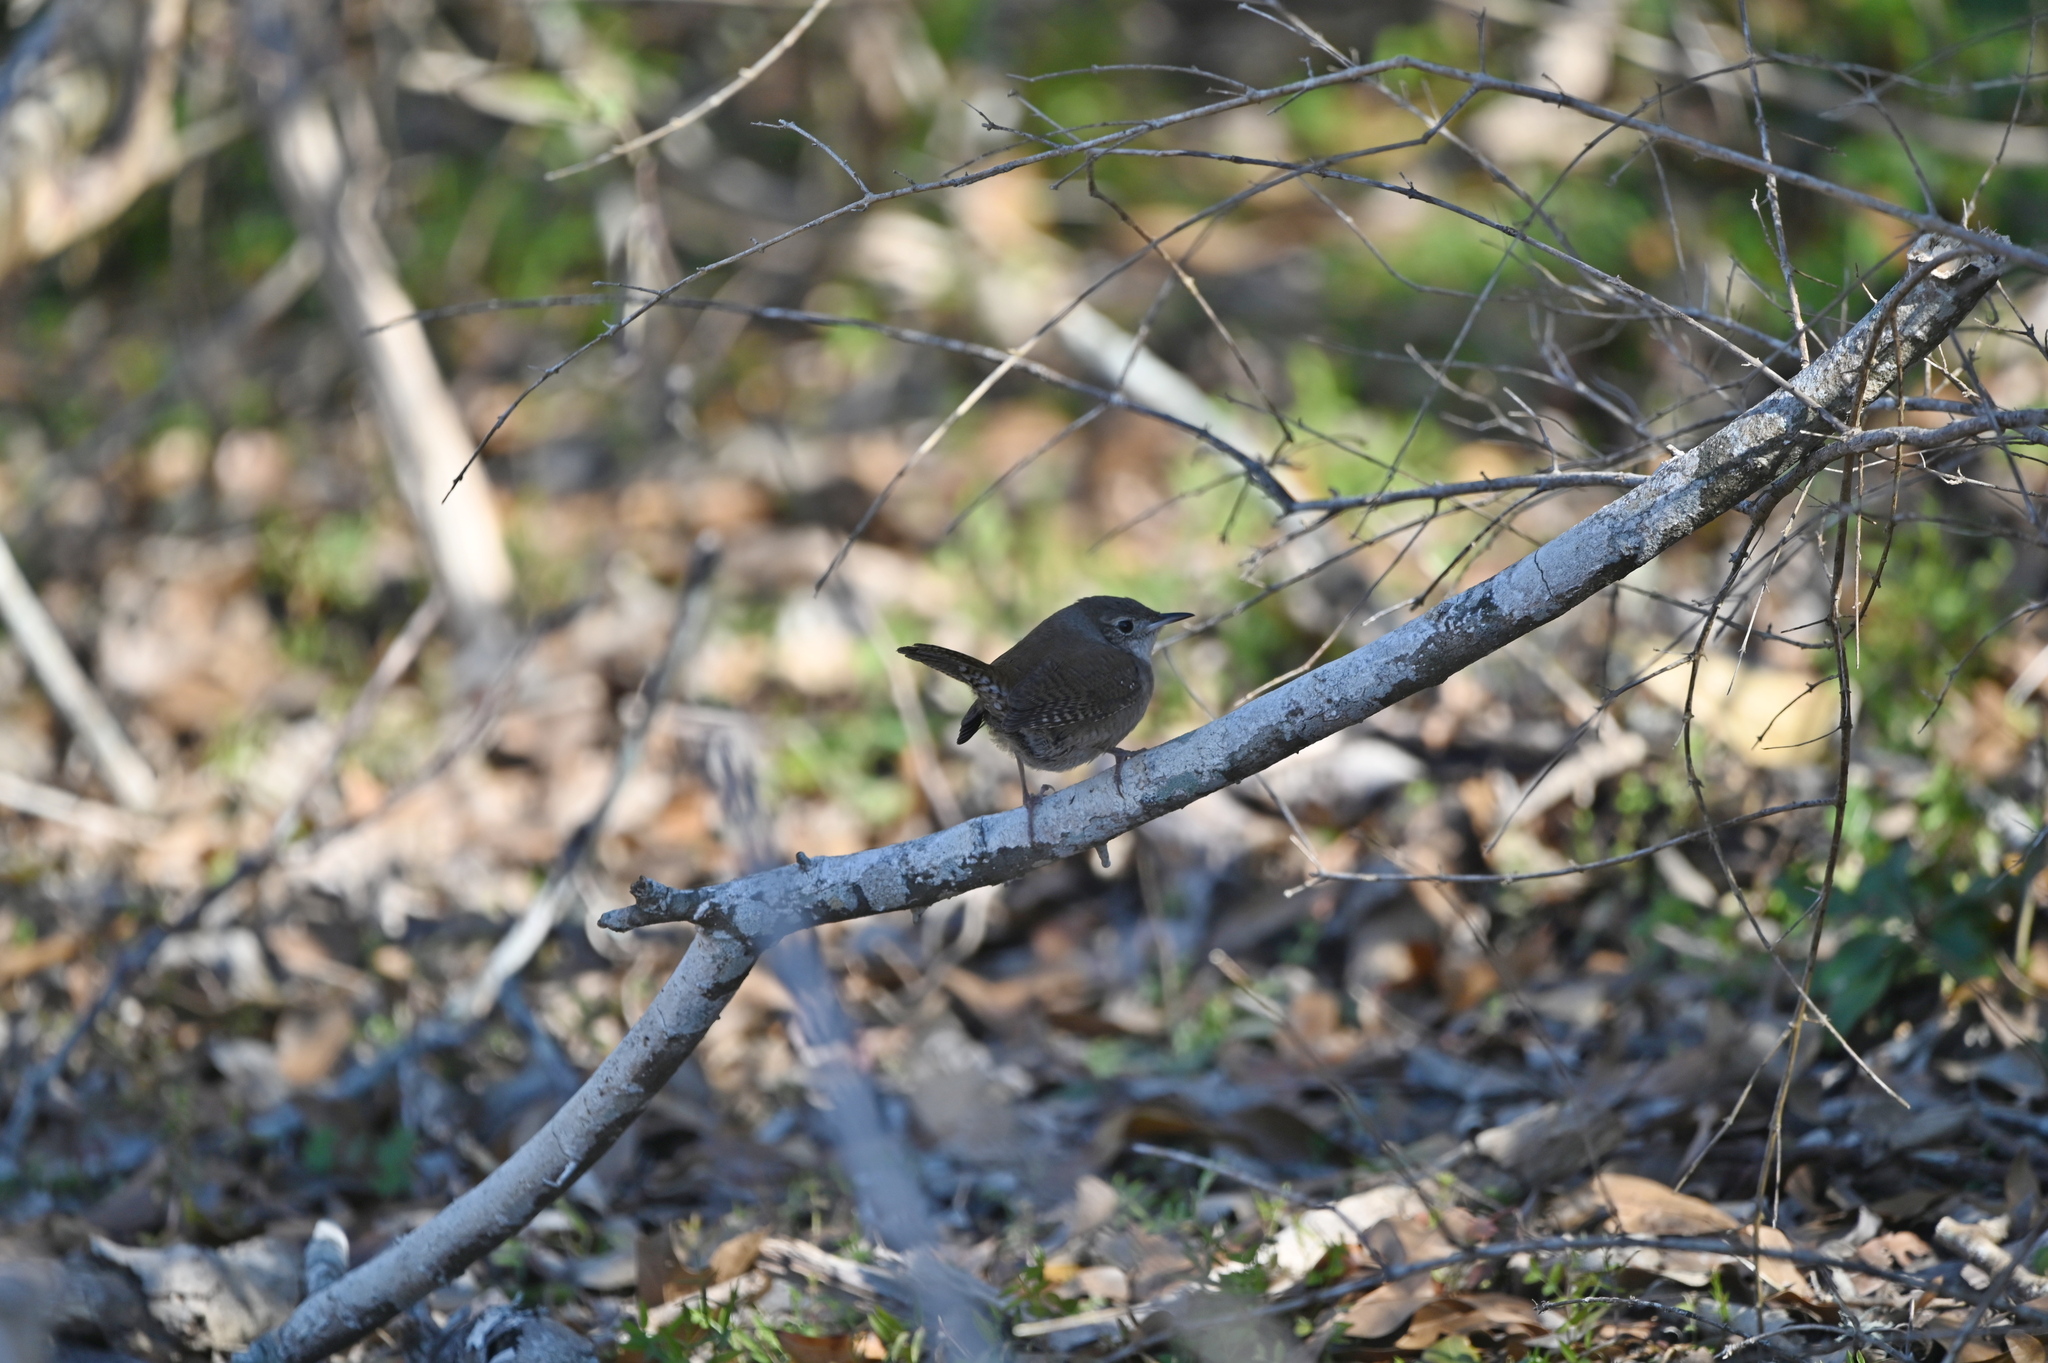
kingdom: Animalia
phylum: Chordata
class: Aves
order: Passeriformes
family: Troglodytidae
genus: Troglodytes
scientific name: Troglodytes aedon
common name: House wren
